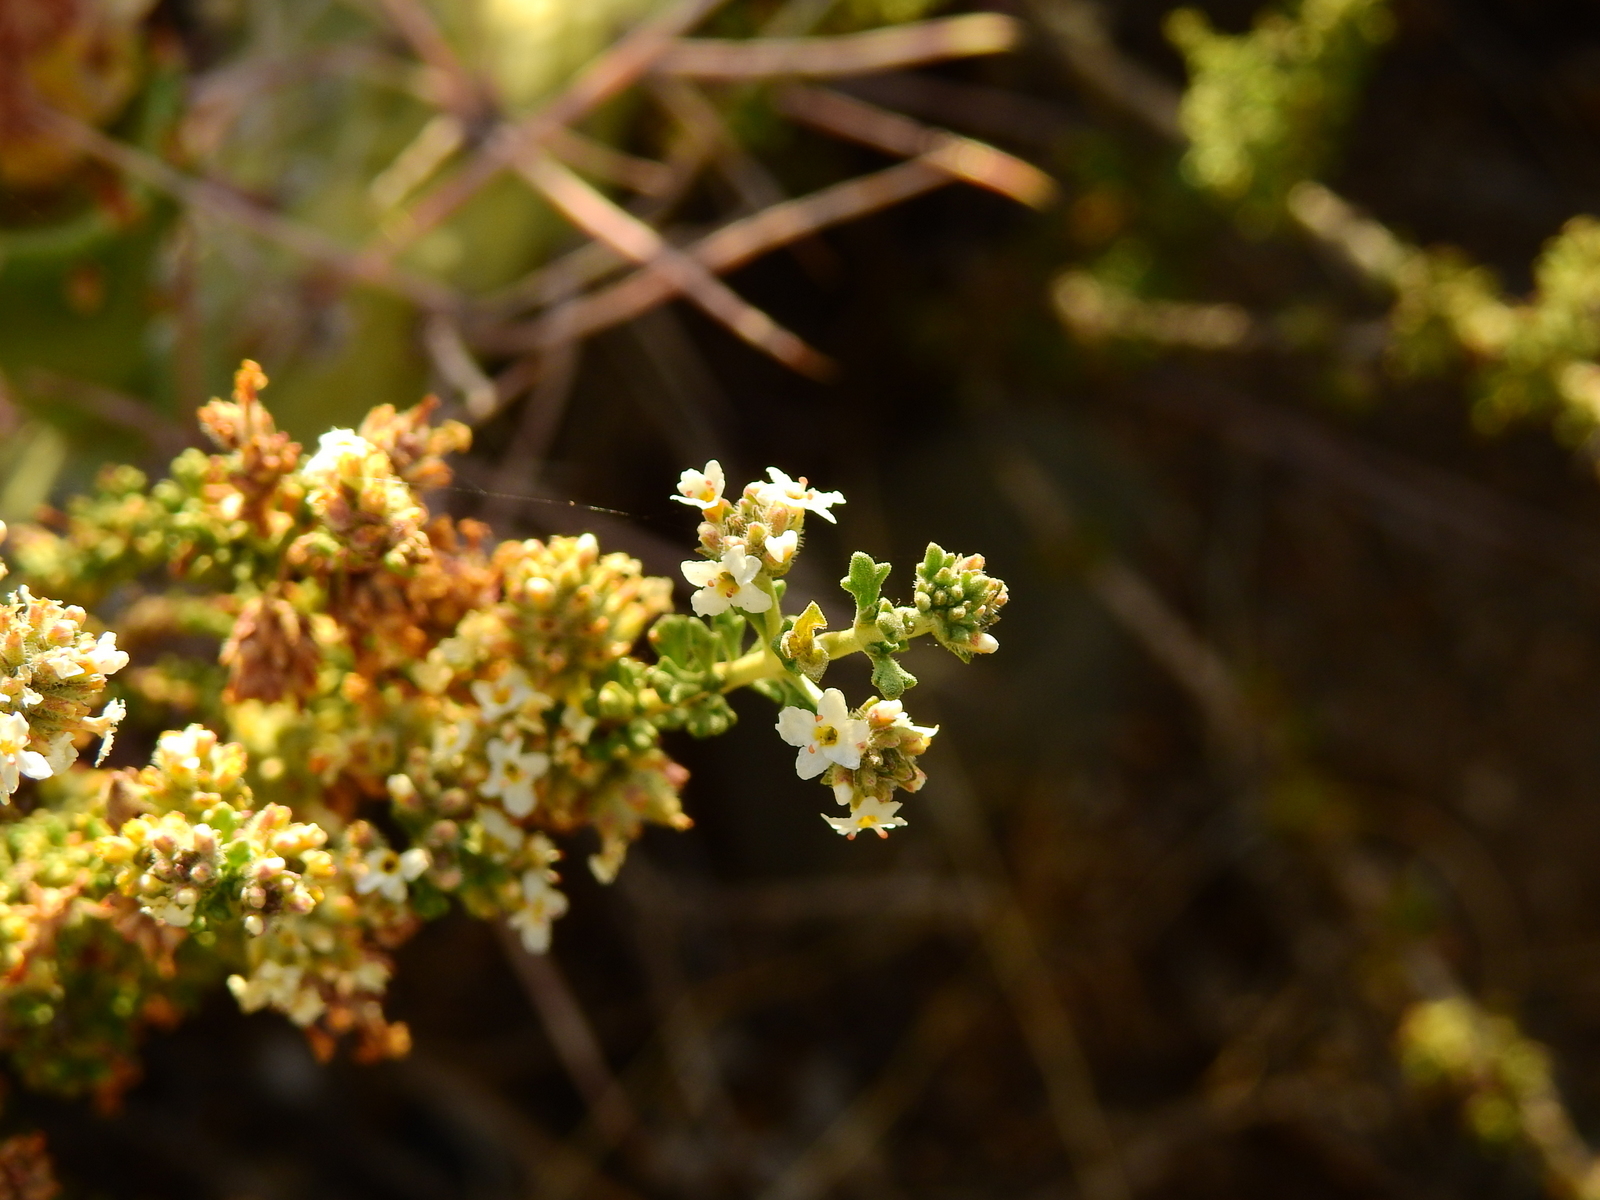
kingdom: Plantae
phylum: Tracheophyta
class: Magnoliopsida
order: Lamiales
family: Verbenaceae
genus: Acantholippia
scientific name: Acantholippia seriphioides
